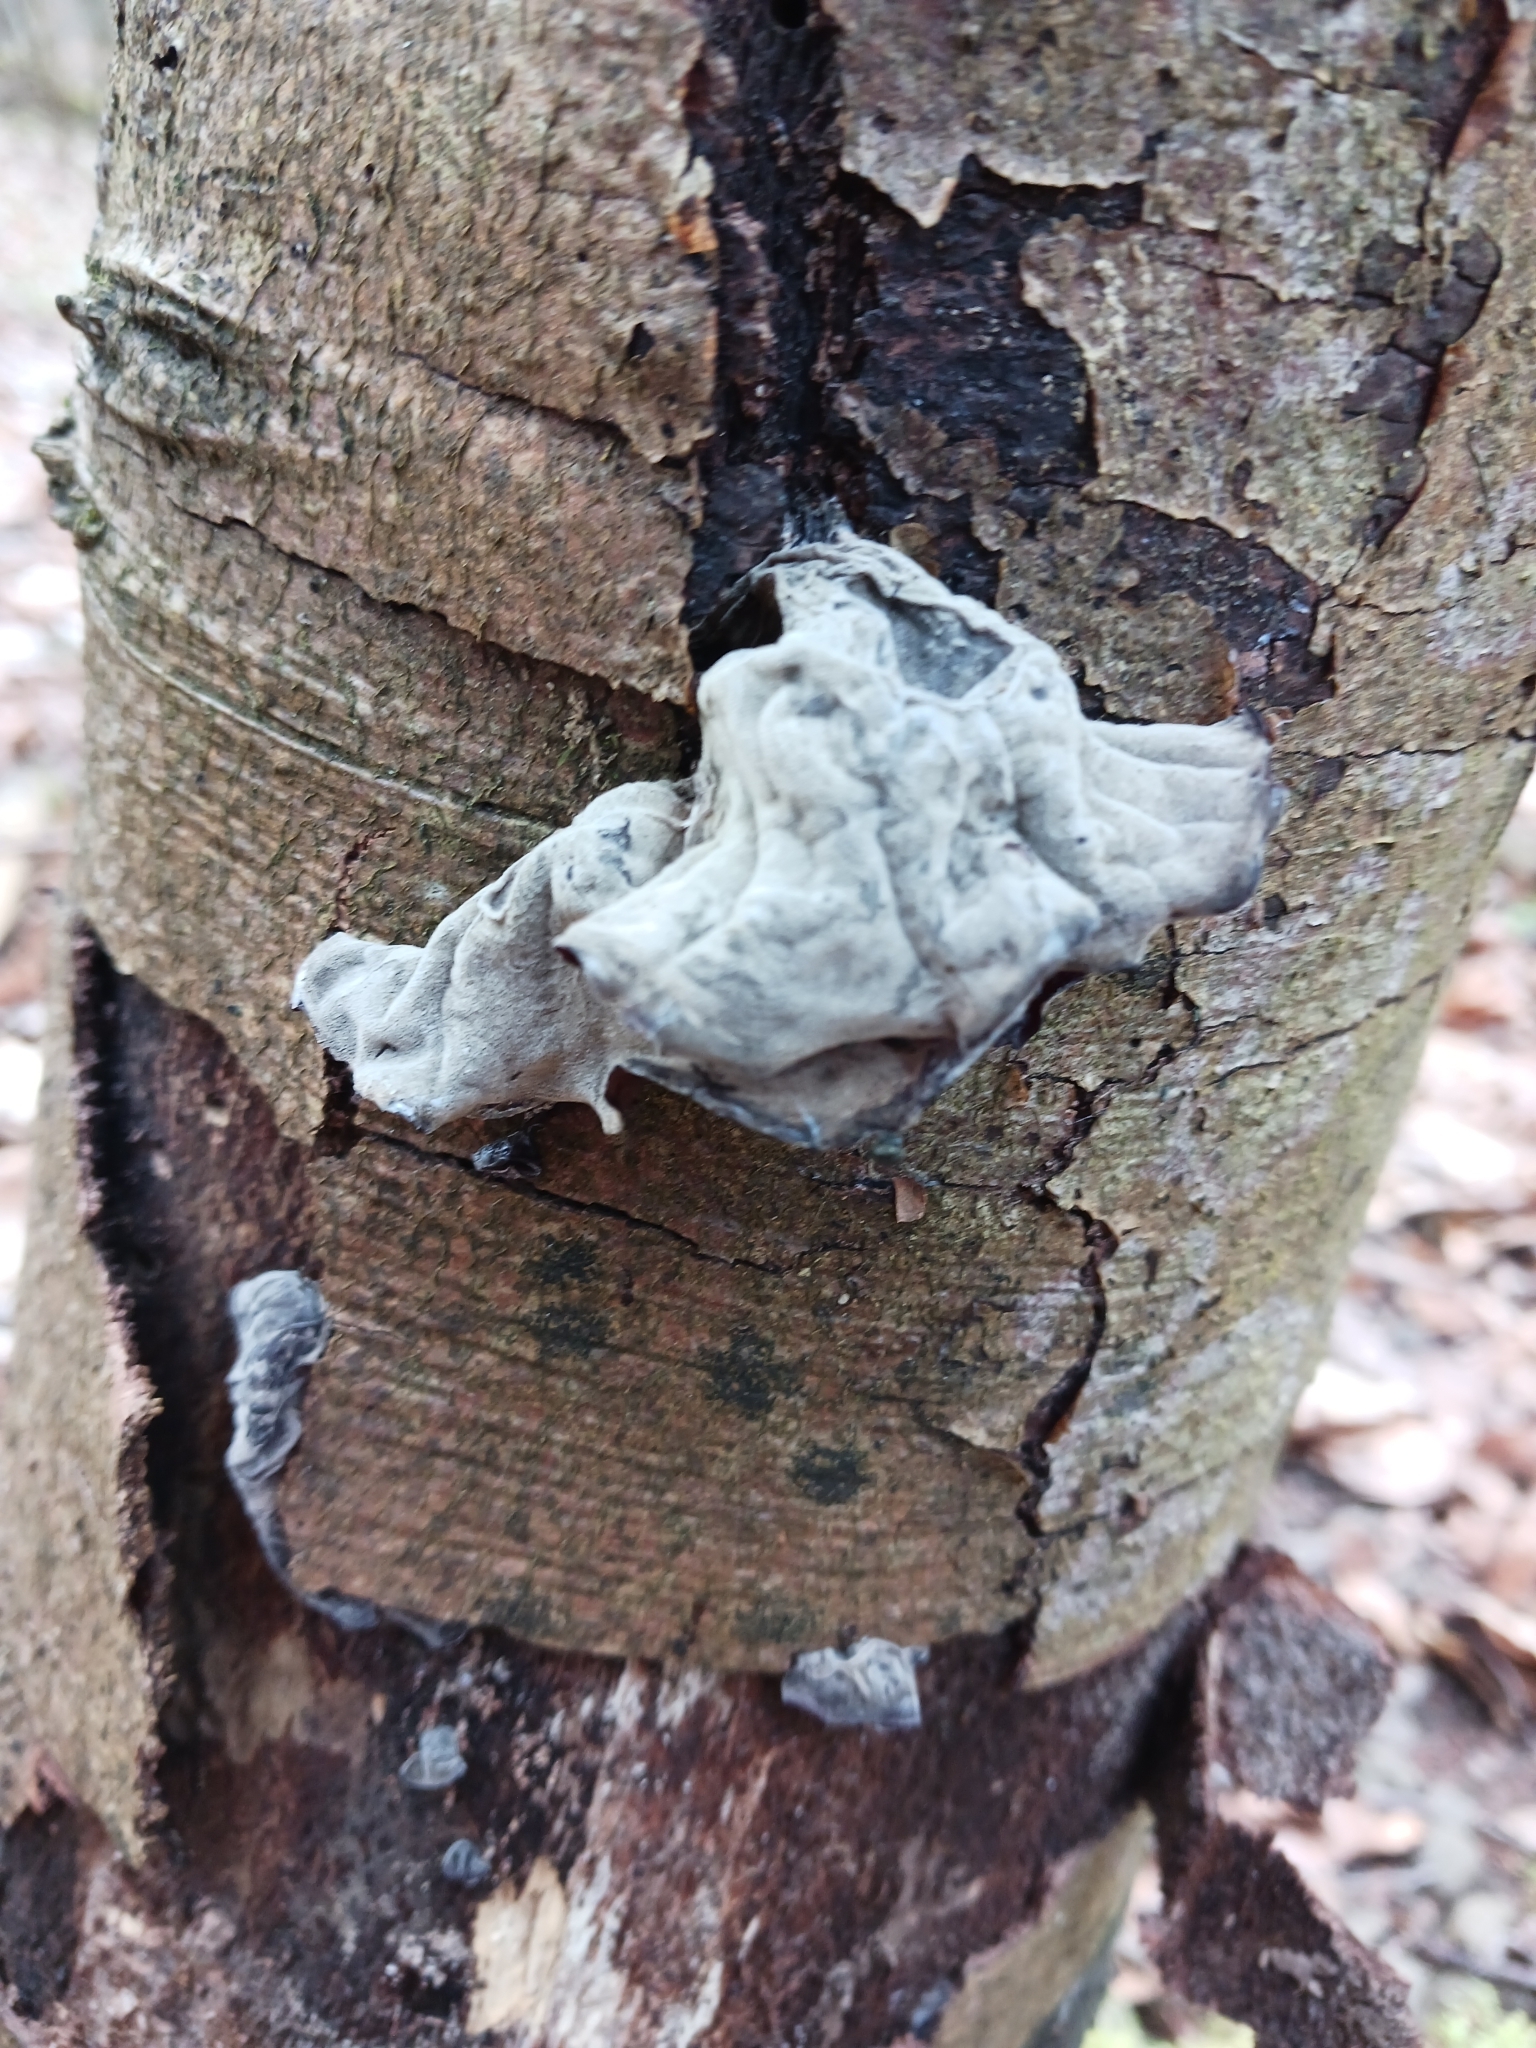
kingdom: Fungi
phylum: Basidiomycota
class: Agaricomycetes
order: Auriculariales
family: Auriculariaceae
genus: Auricularia
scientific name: Auricularia auricula-judae
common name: Jelly ear
